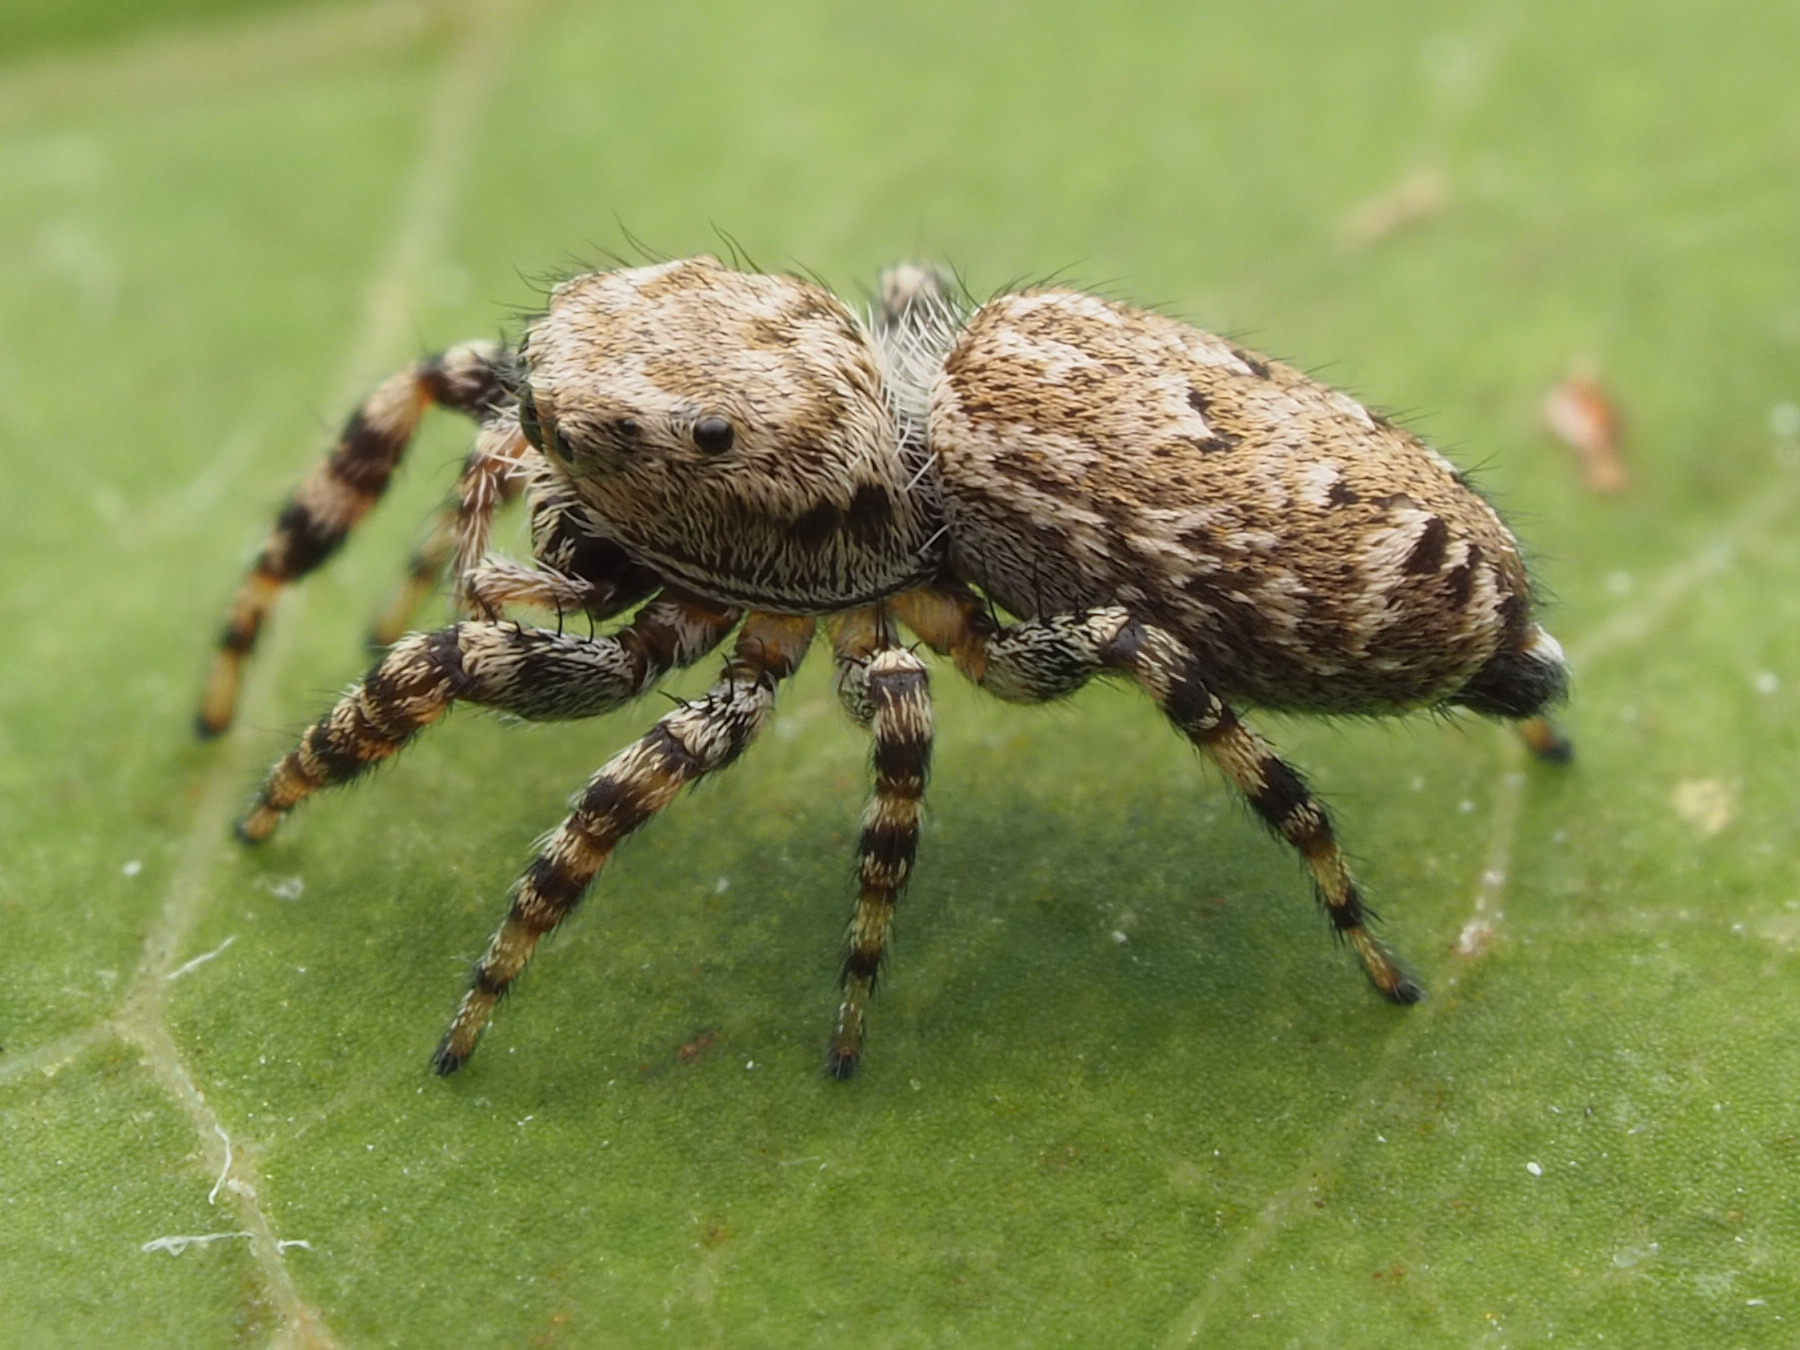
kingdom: Animalia
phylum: Arthropoda
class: Arachnida
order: Araneae
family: Salticidae
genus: Pelegrina
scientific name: Pelegrina galathea
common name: Jumping spiders
